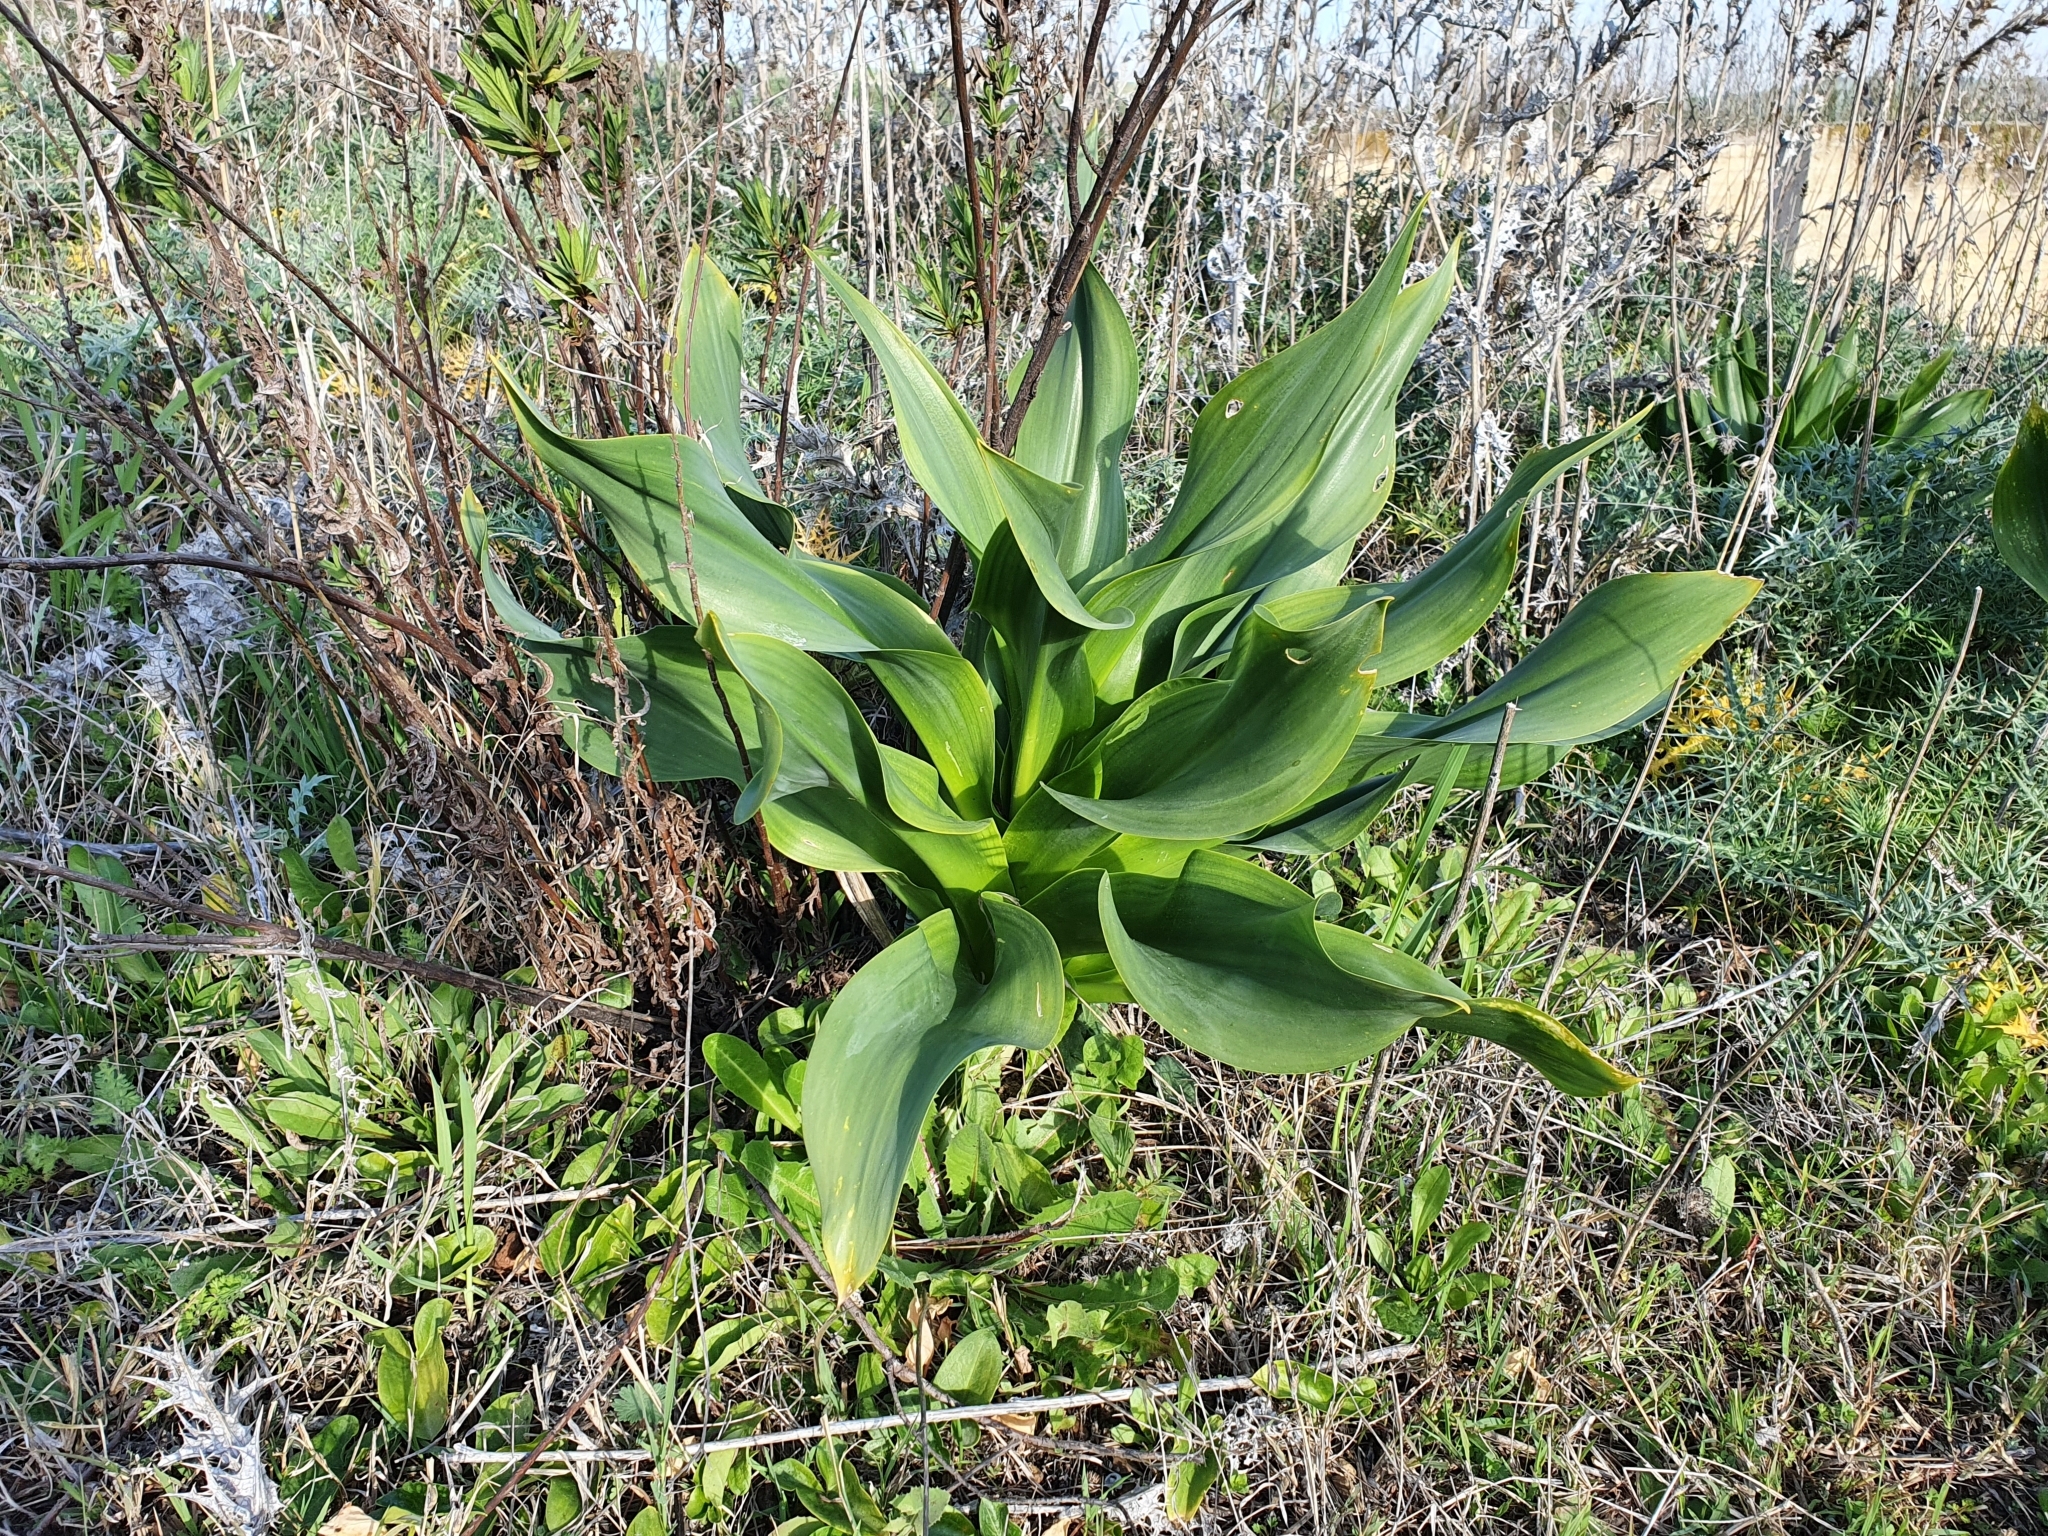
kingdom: Plantae
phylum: Tracheophyta
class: Liliopsida
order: Asparagales
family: Asparagaceae
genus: Drimia
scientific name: Drimia numidica
